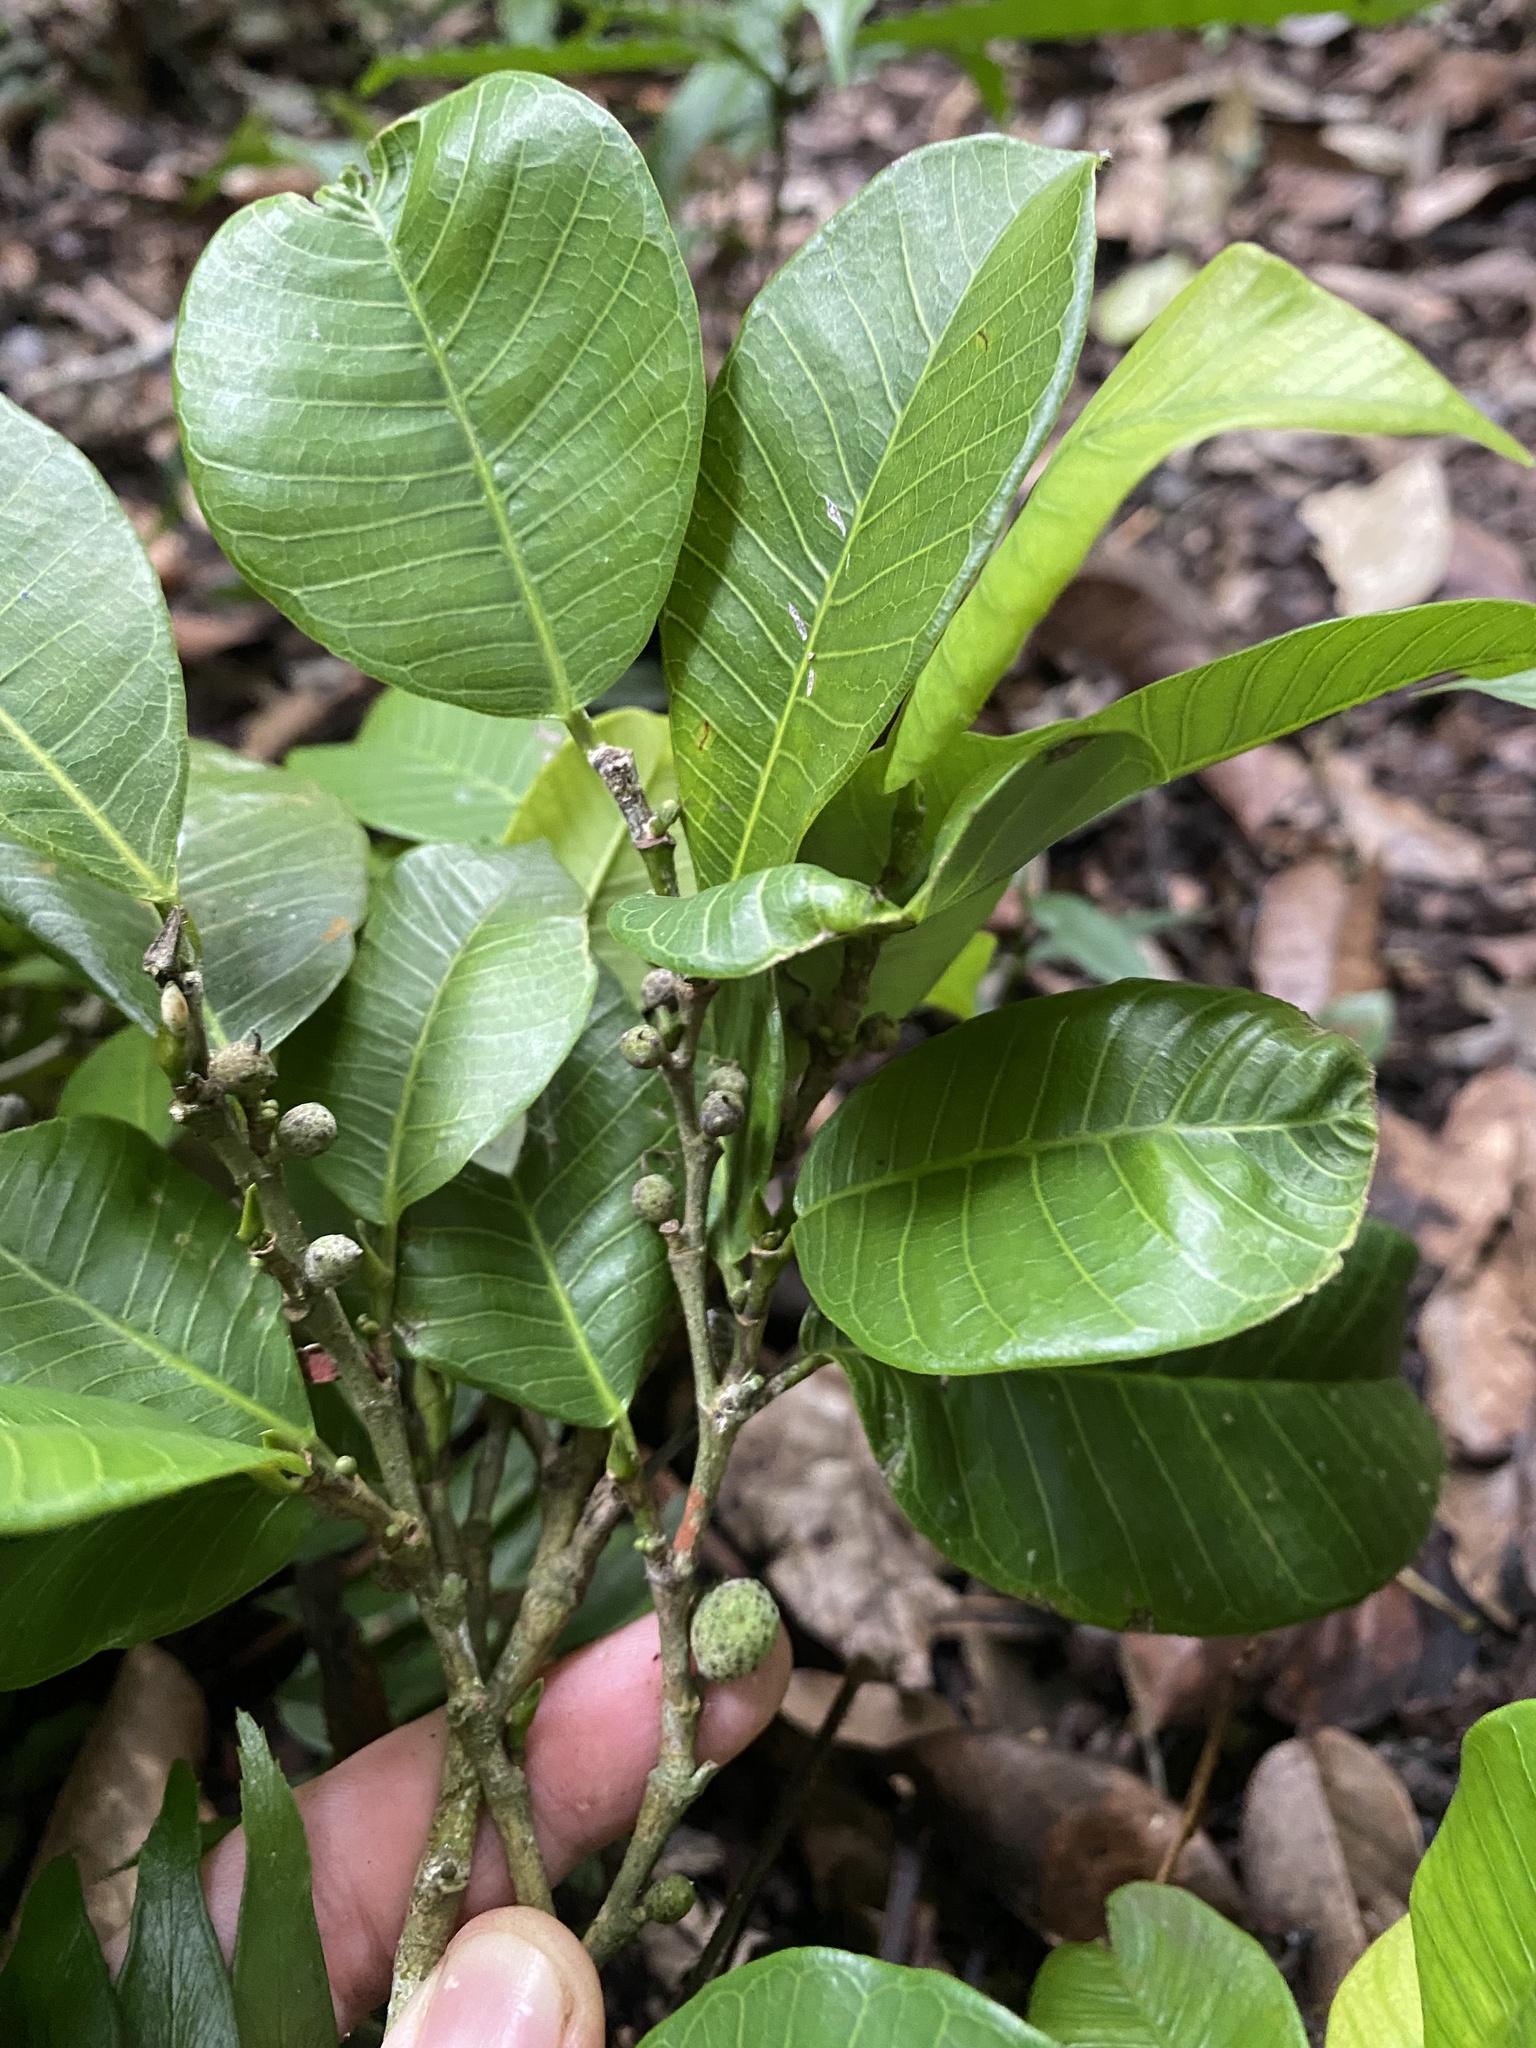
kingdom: Plantae
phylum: Tracheophyta
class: Magnoliopsida
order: Rosales
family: Moraceae
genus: Brosimum
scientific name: Brosimum alicastrum
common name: Breadnut
